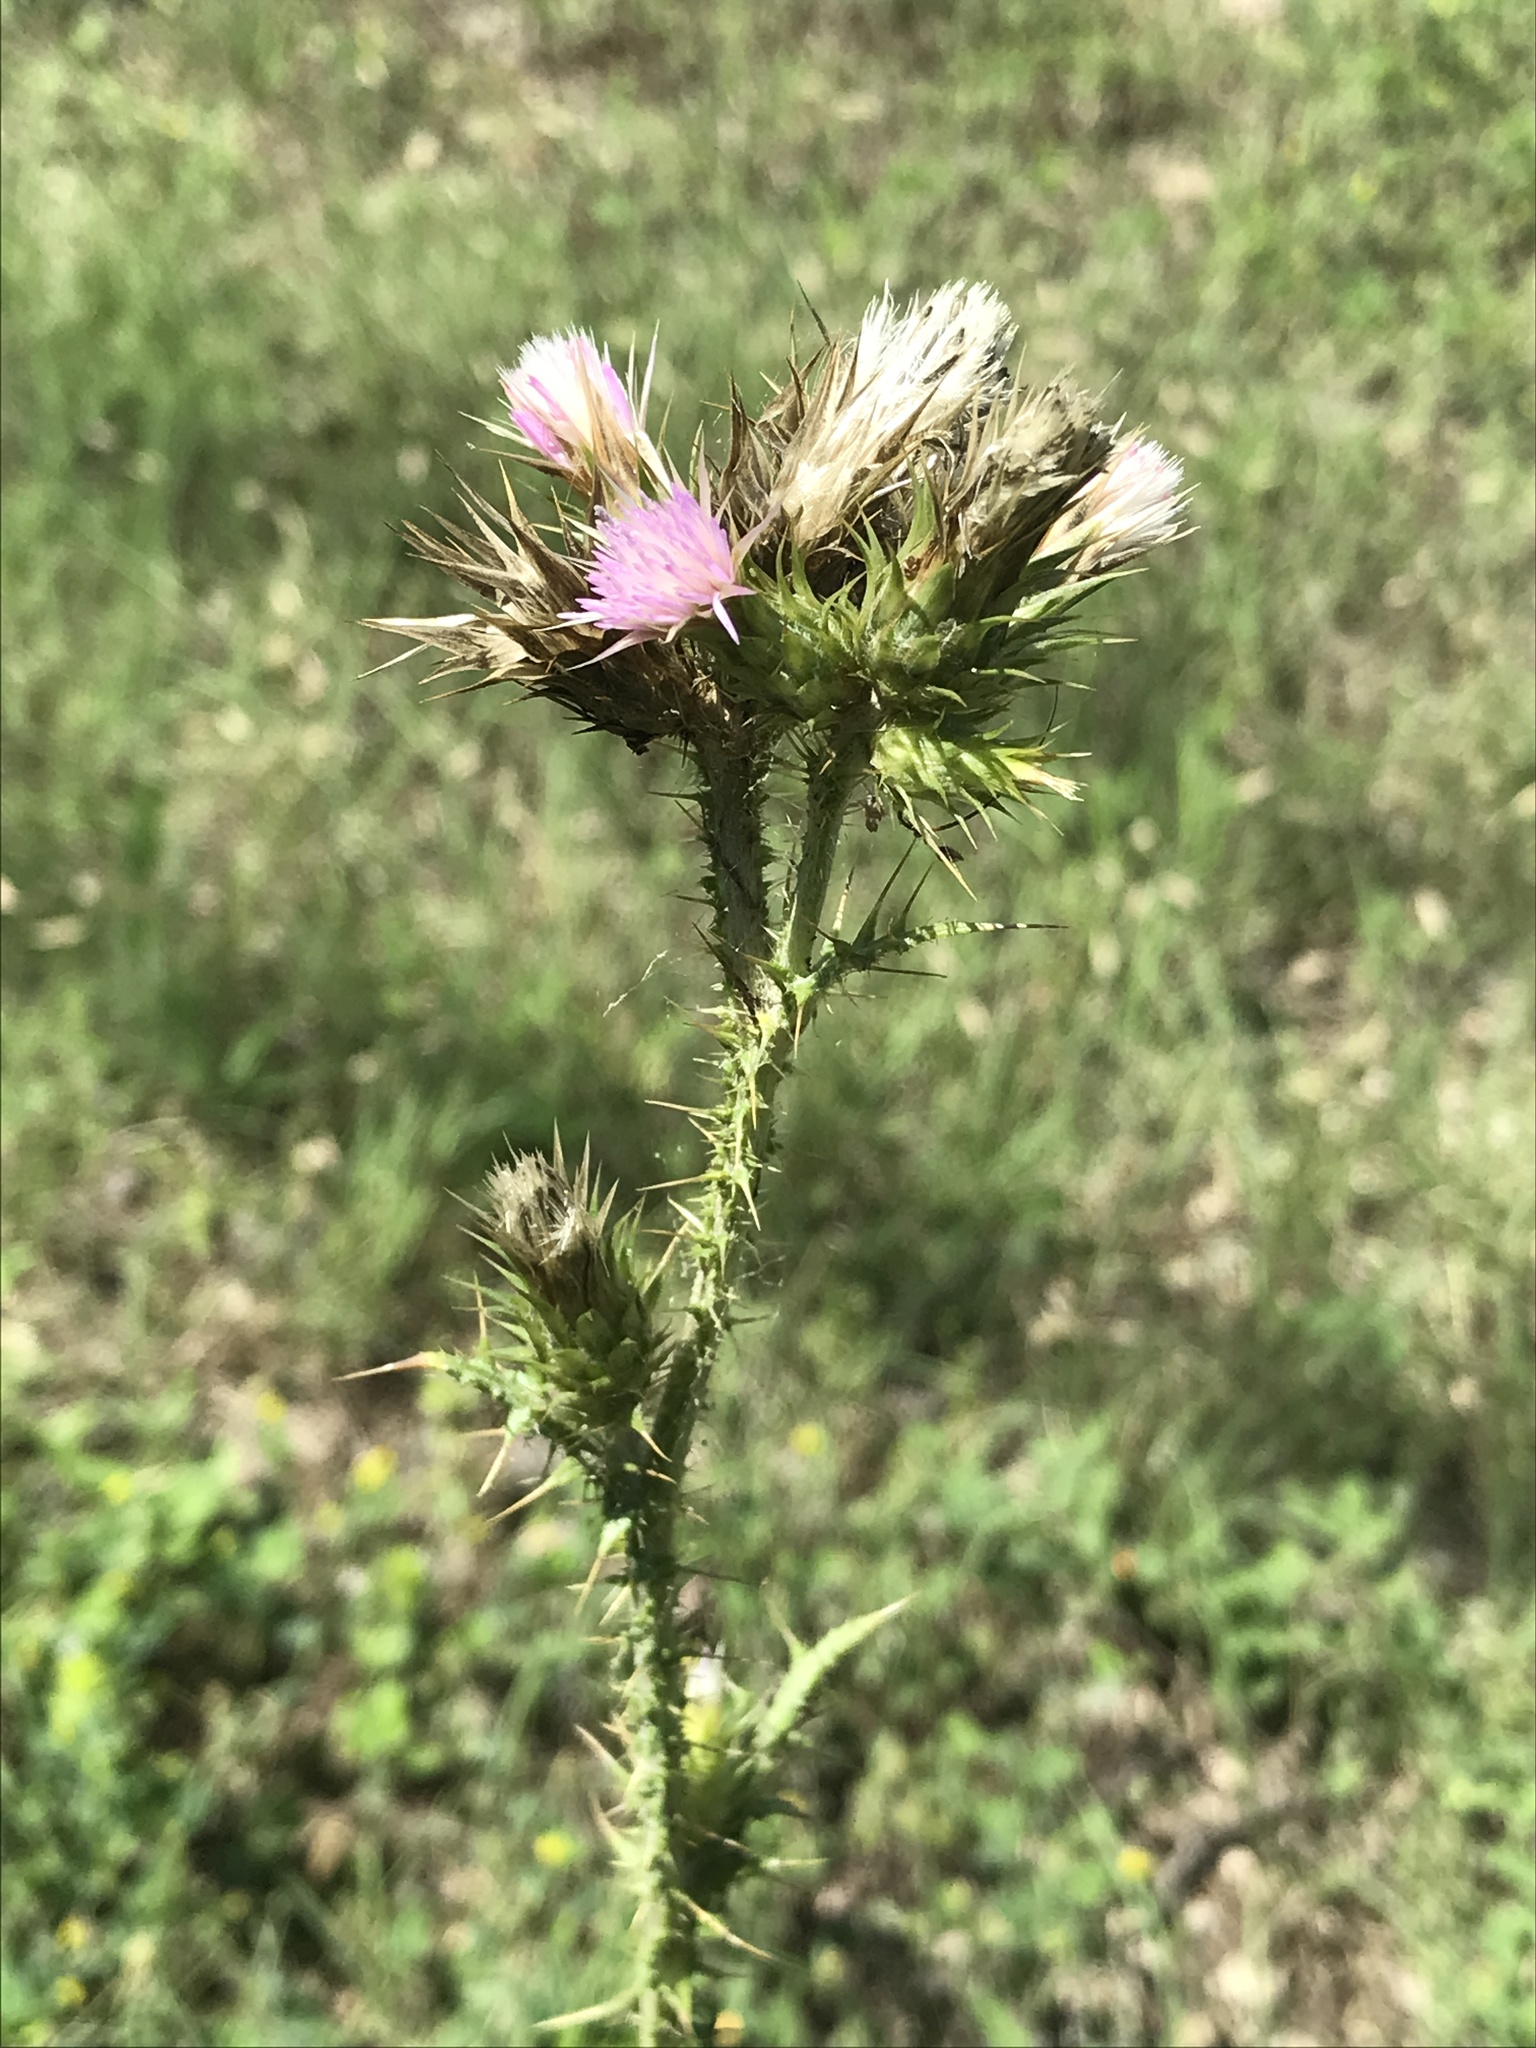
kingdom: Plantae
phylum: Tracheophyta
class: Magnoliopsida
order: Asterales
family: Asteraceae
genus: Carduus
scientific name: Carduus tenuiflorus
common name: Slender thistle
